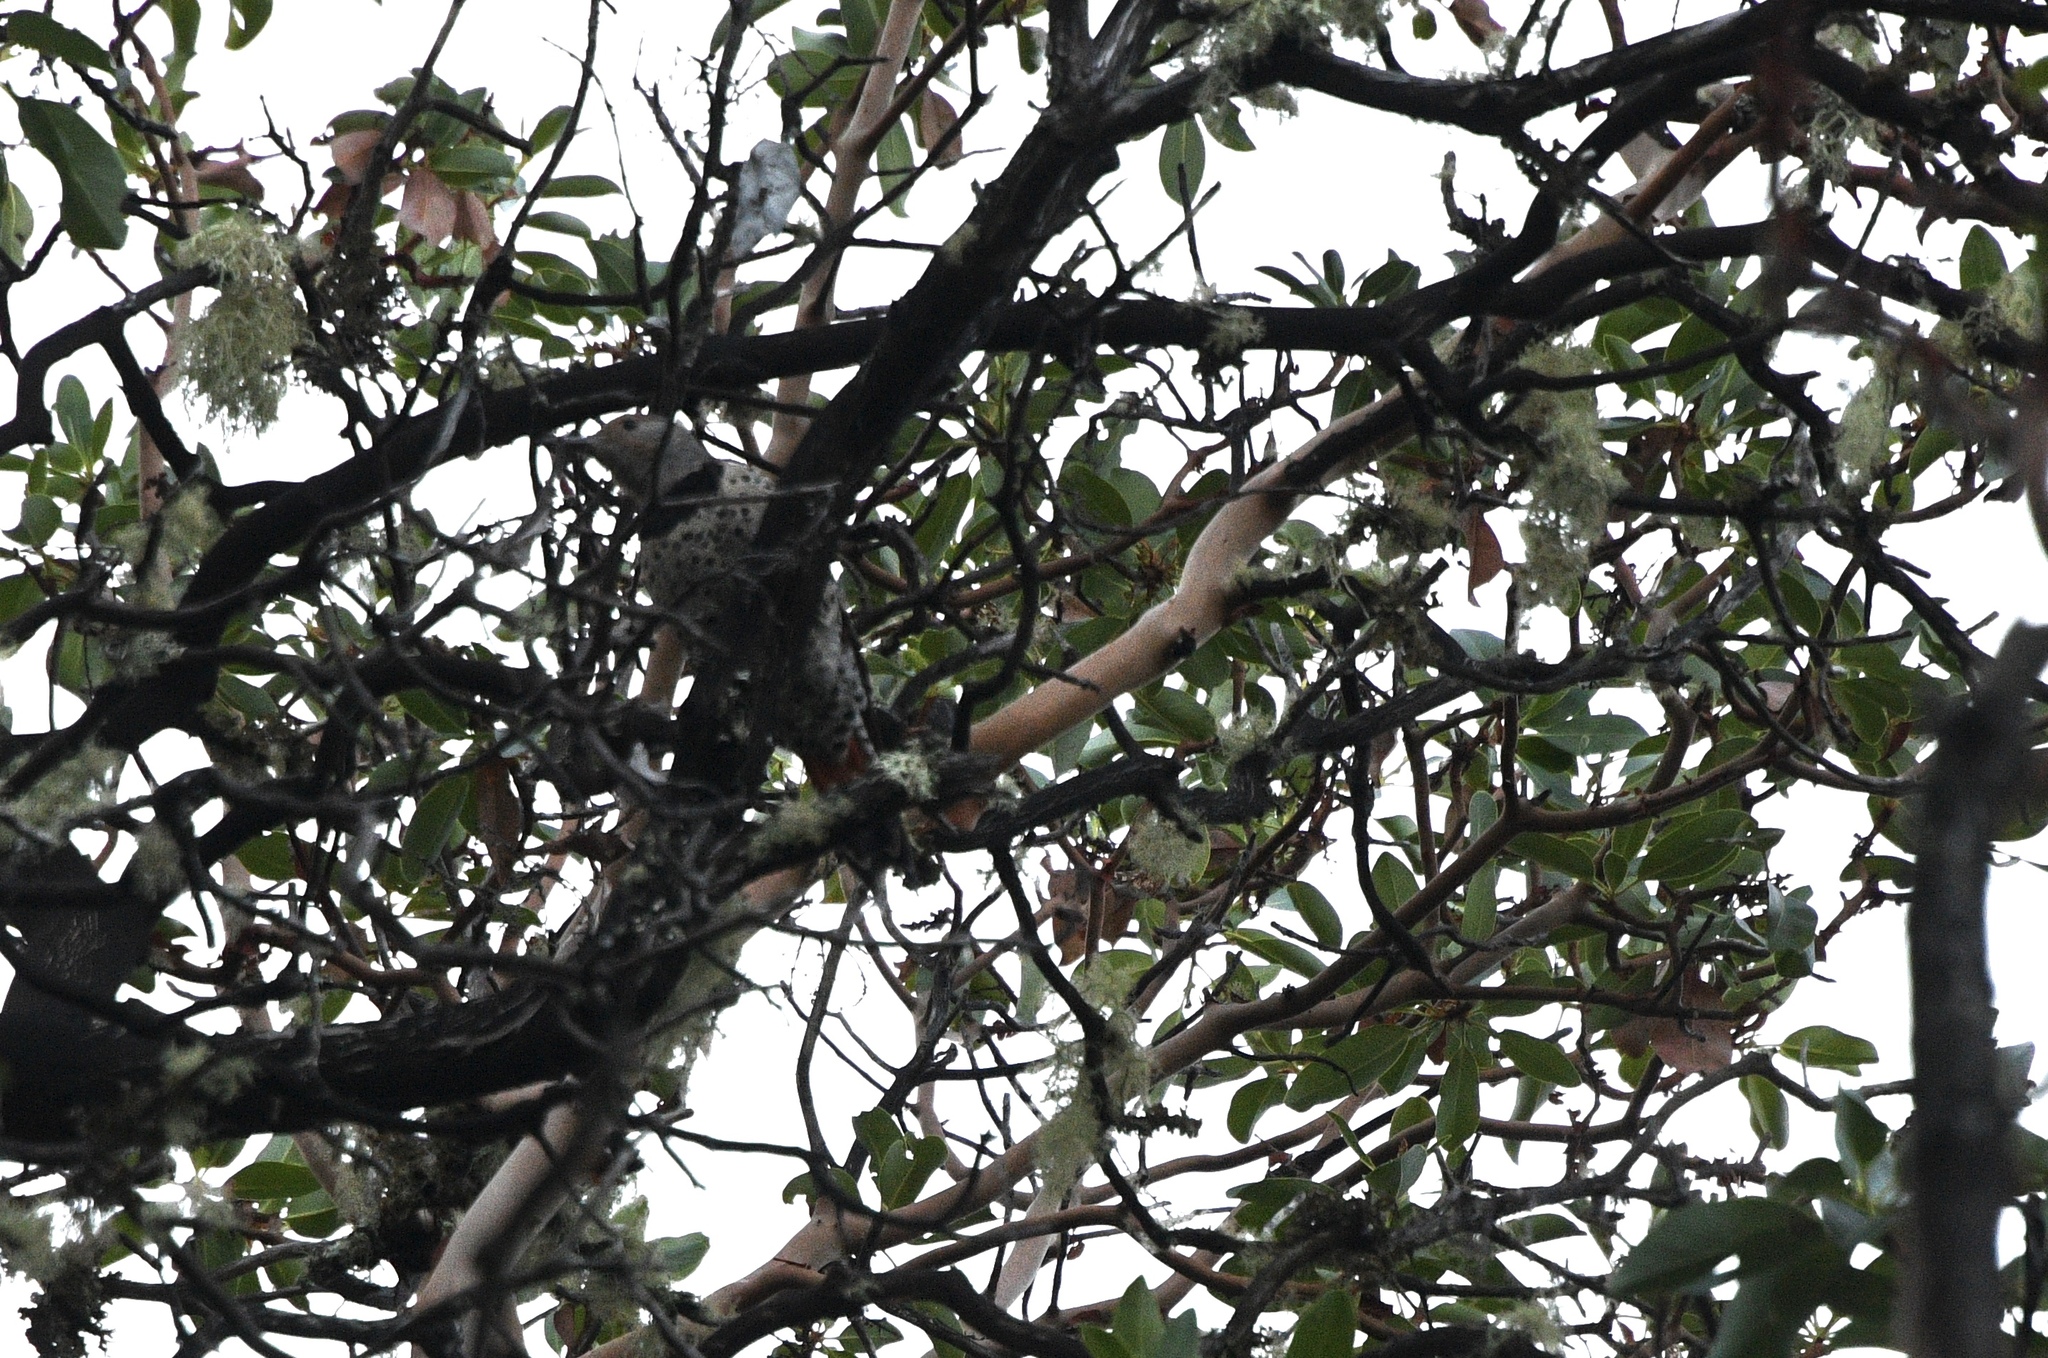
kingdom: Animalia
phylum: Chordata
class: Aves
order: Piciformes
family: Picidae
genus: Colaptes
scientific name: Colaptes auratus
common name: Northern flicker
